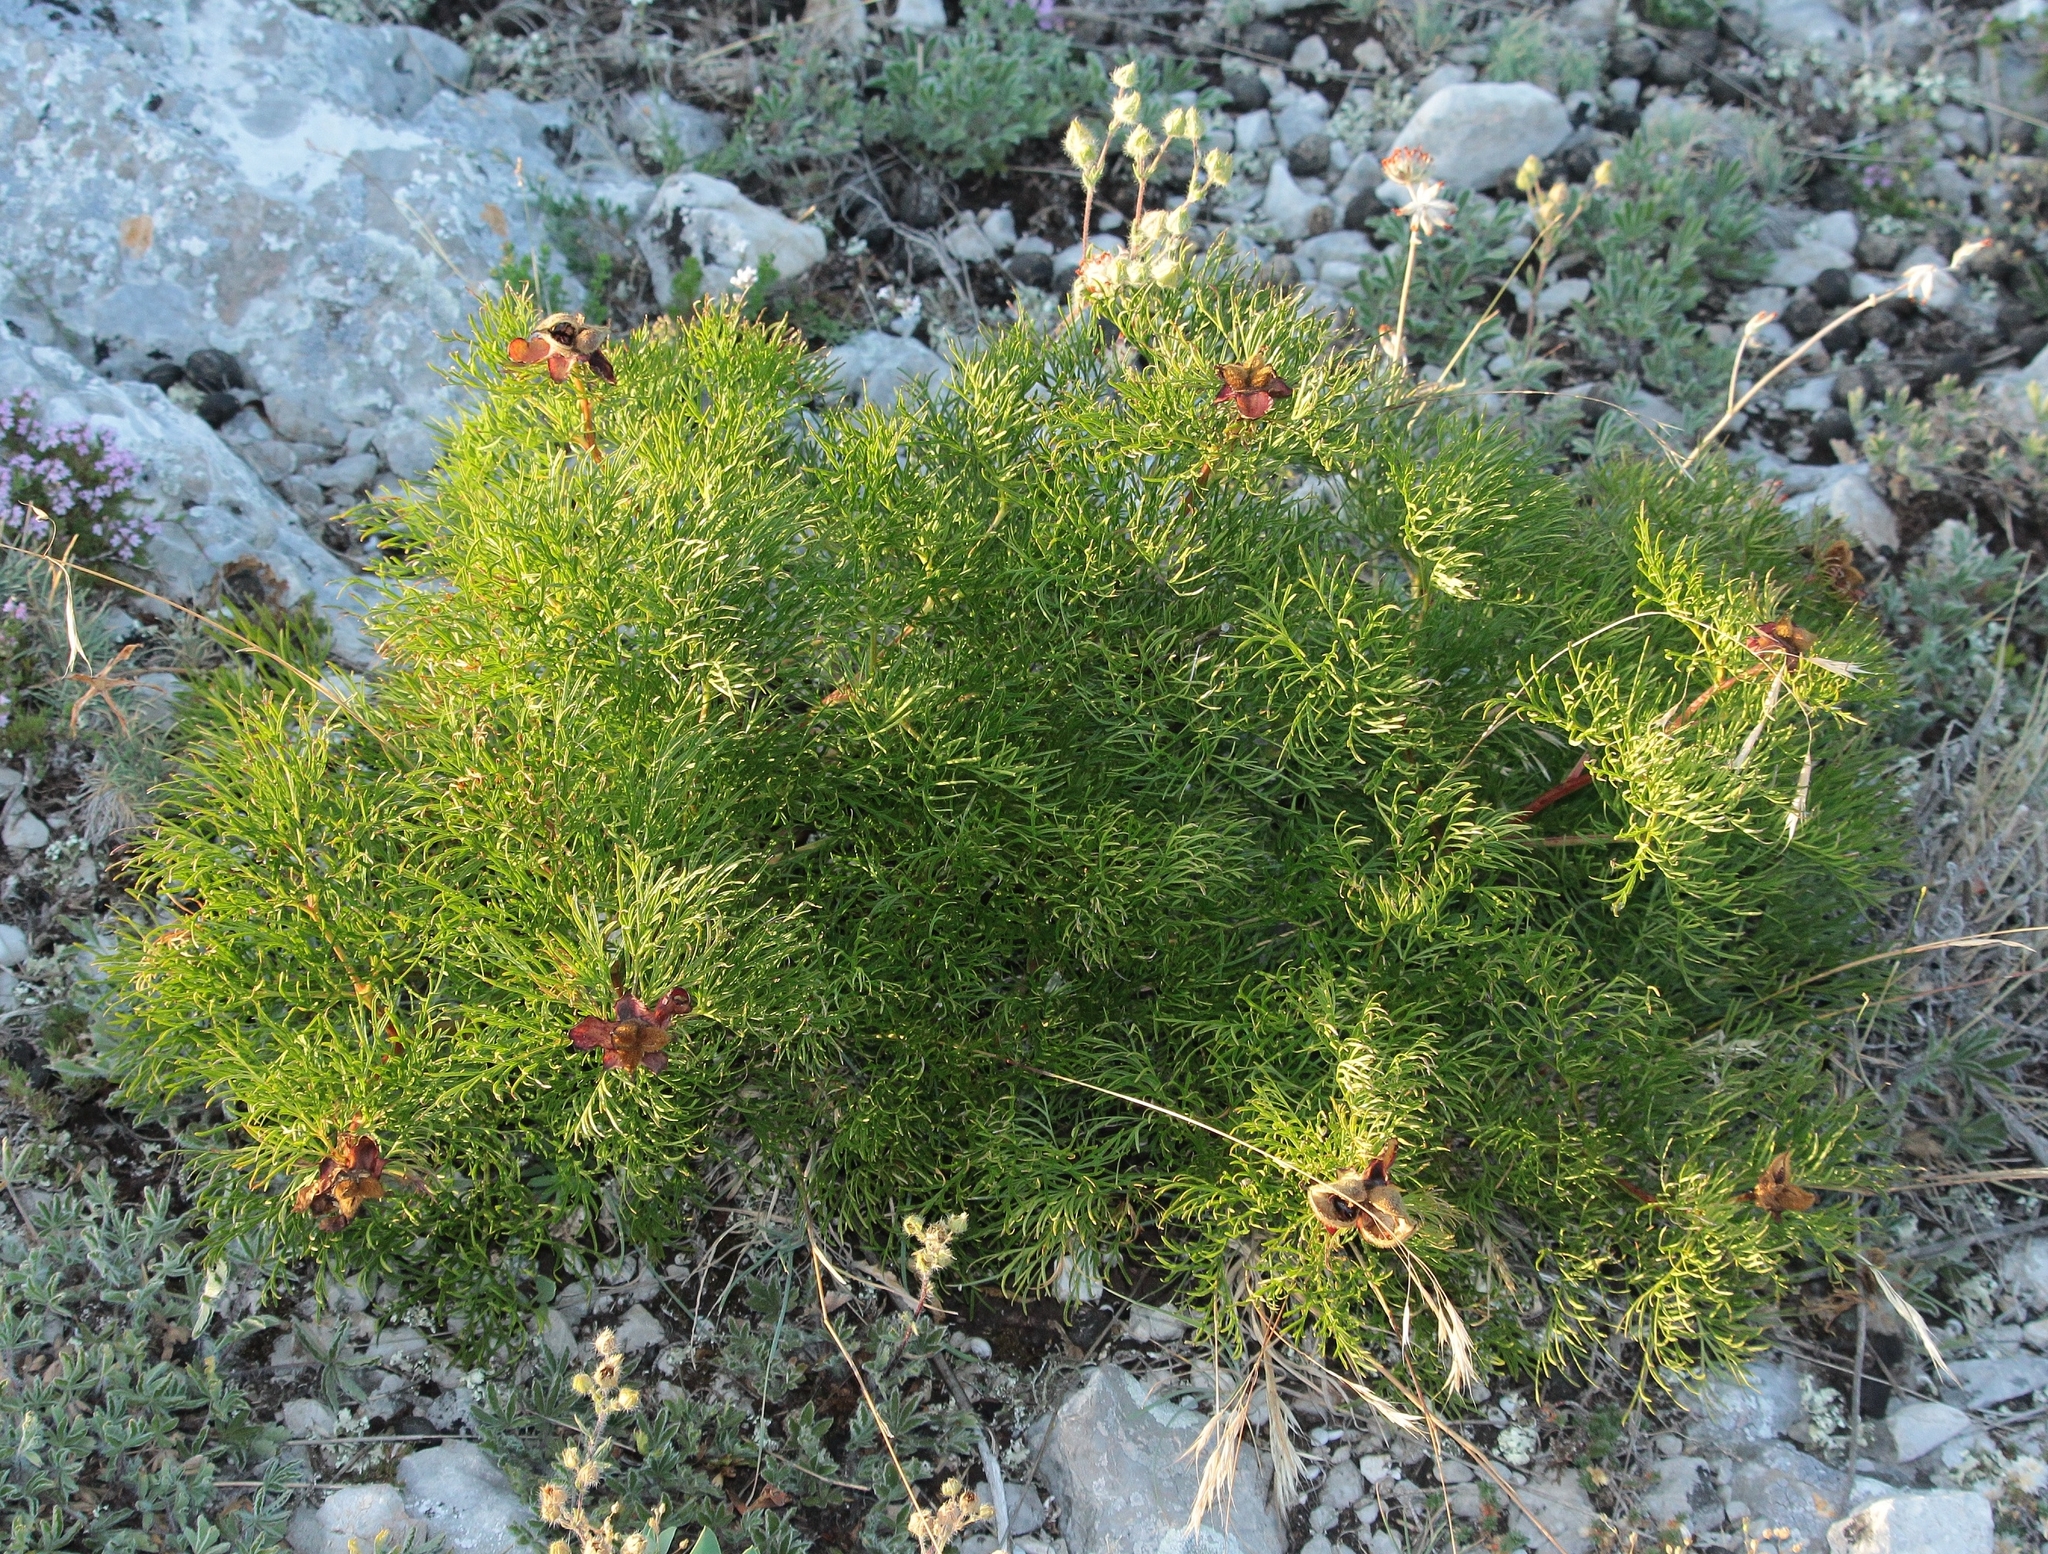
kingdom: Plantae
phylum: Tracheophyta
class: Magnoliopsida
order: Saxifragales
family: Paeoniaceae
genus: Paeonia
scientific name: Paeonia tenuifolia
